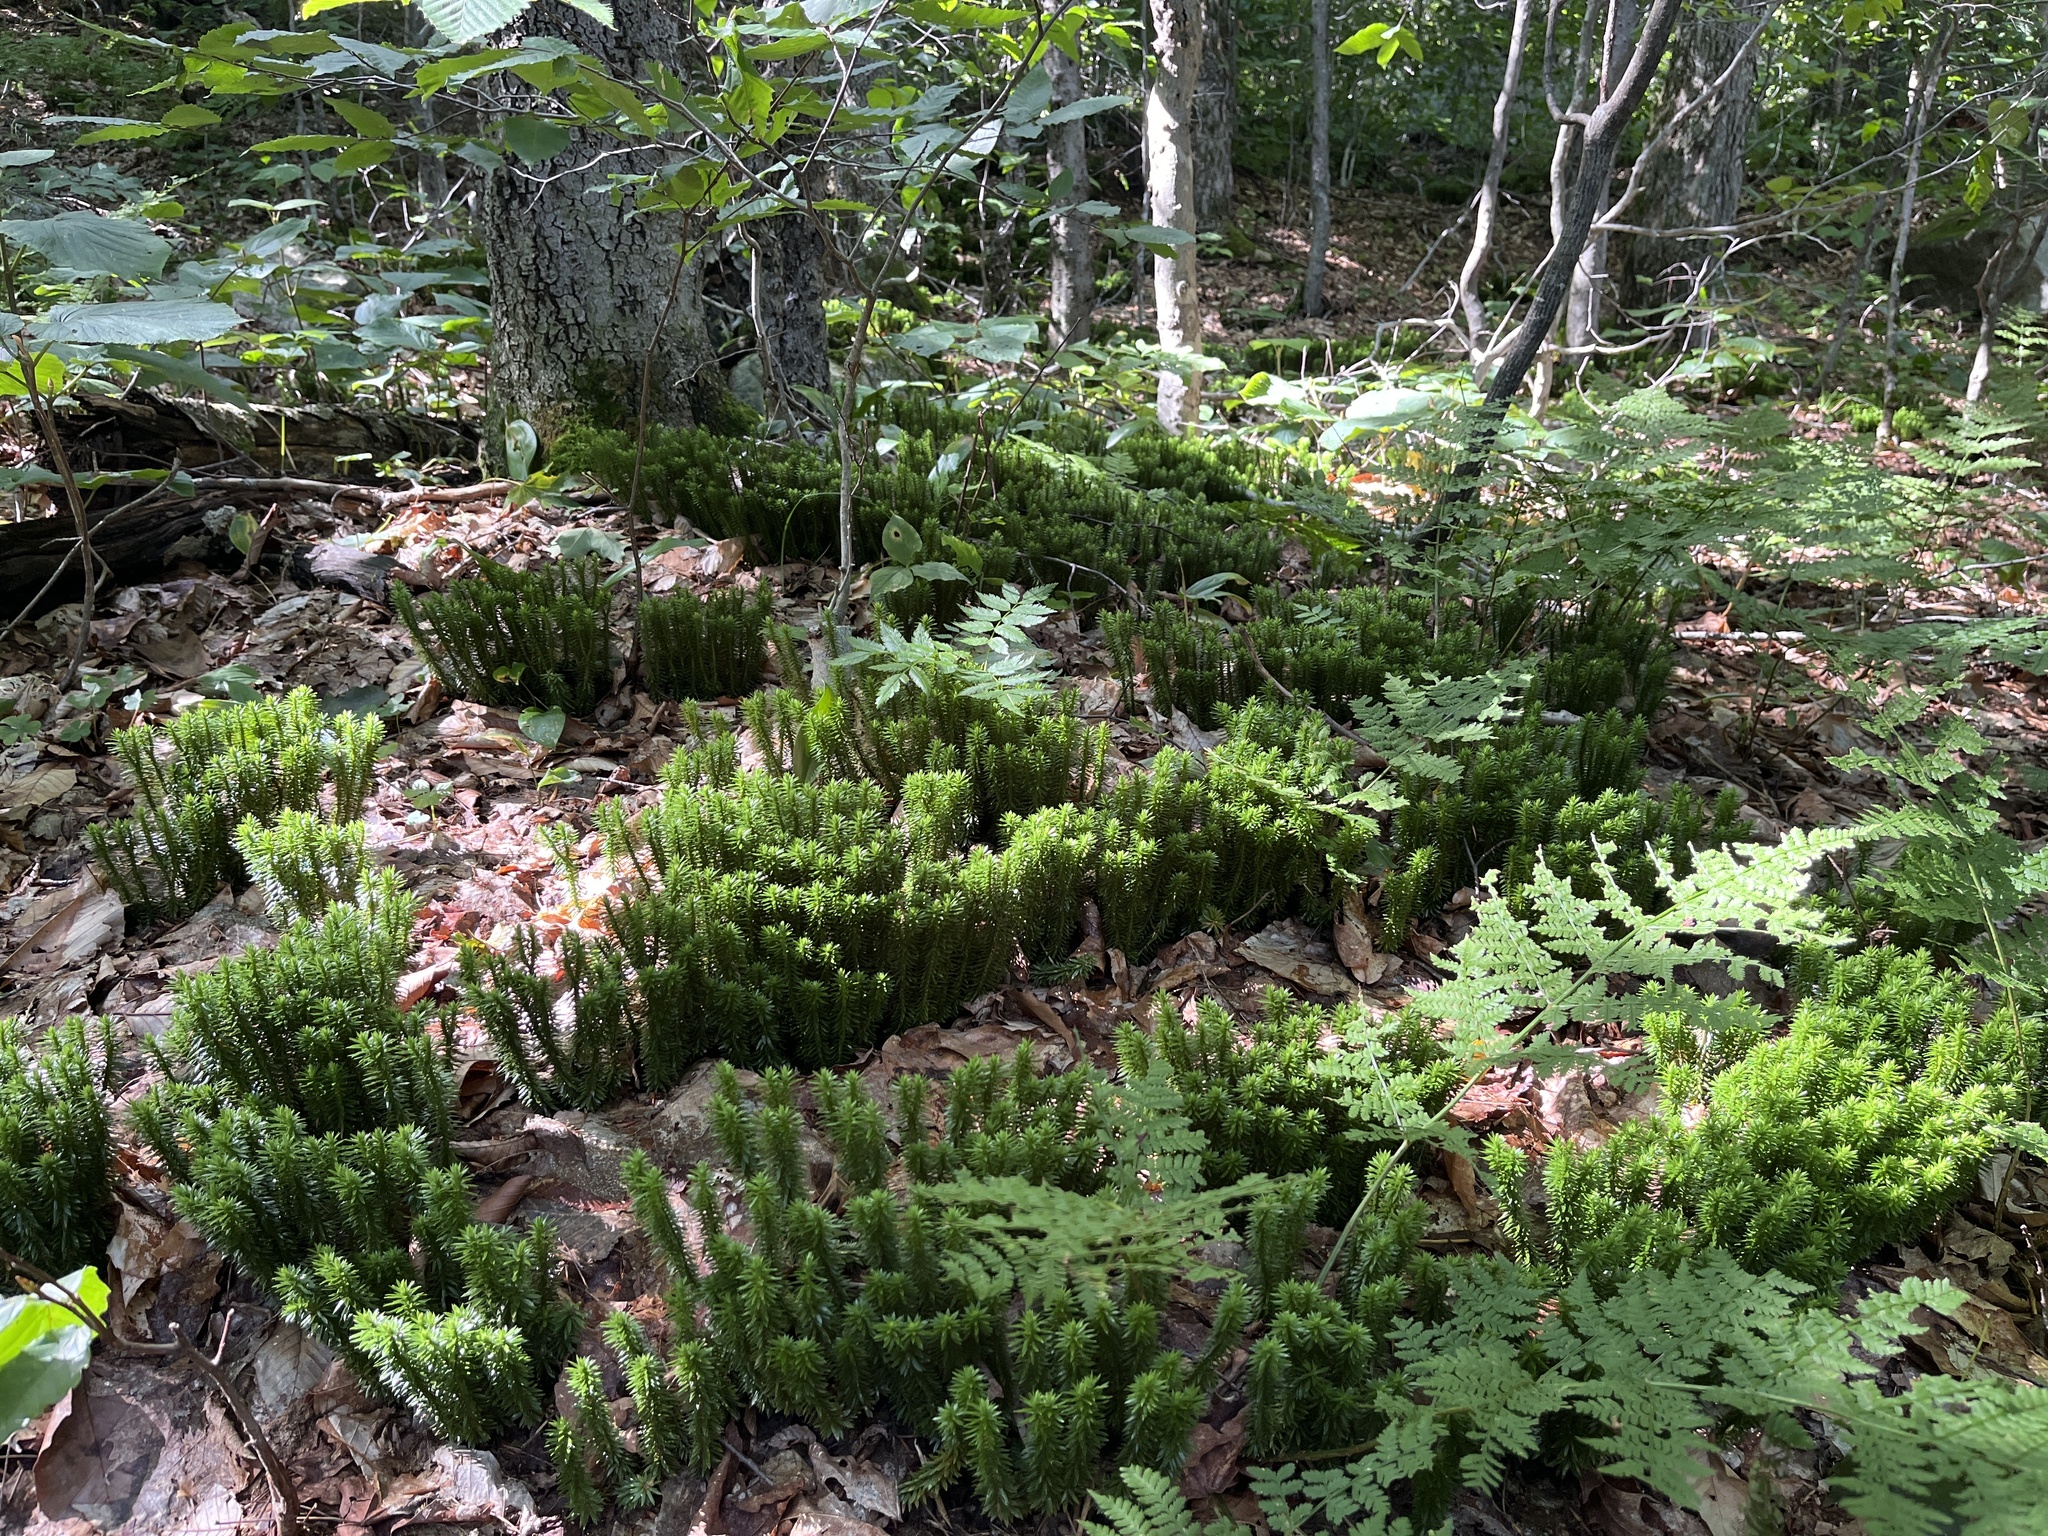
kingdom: Plantae
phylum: Tracheophyta
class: Lycopodiopsida
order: Lycopodiales
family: Lycopodiaceae
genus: Huperzia
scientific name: Huperzia lucidula
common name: Shining clubmoss
